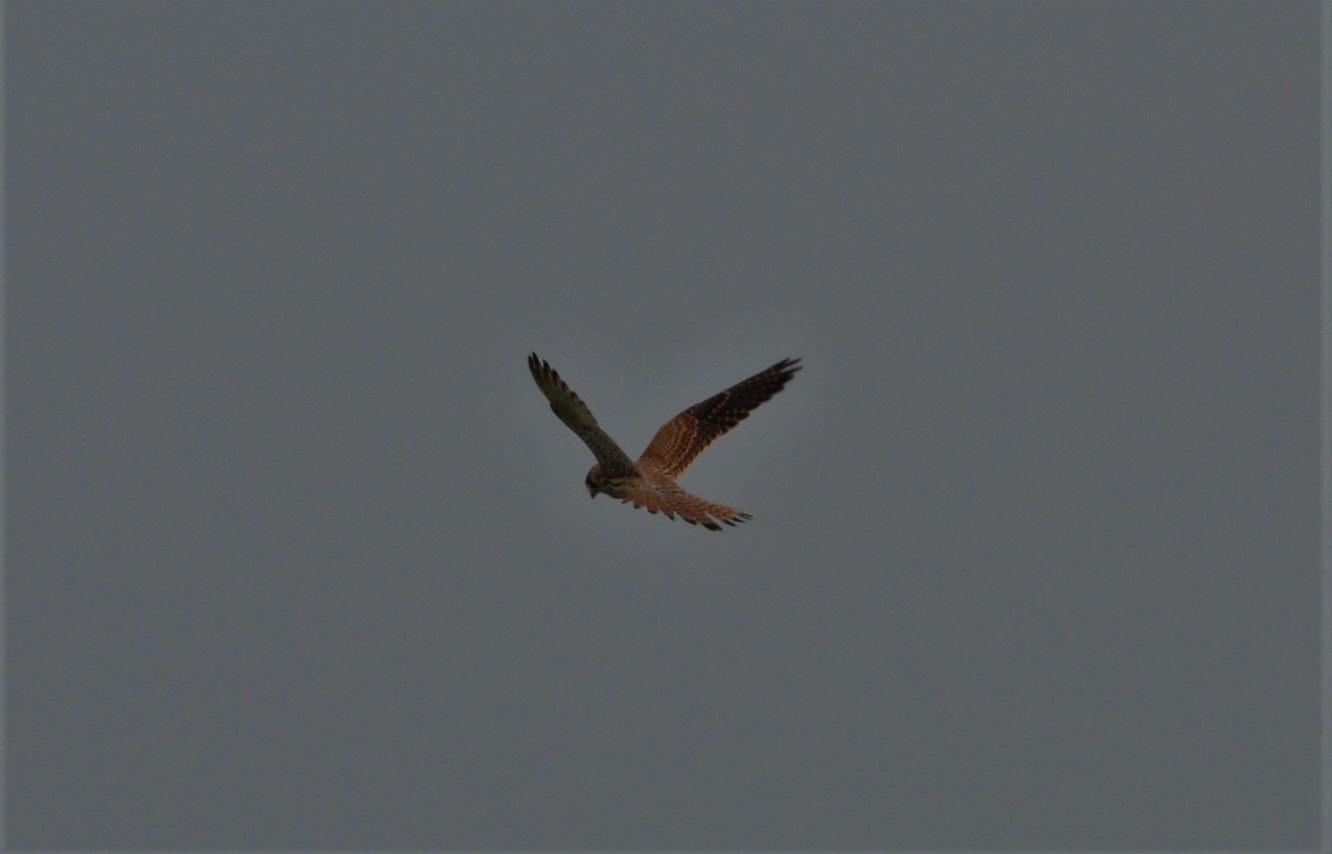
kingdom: Animalia
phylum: Chordata
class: Aves
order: Falconiformes
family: Falconidae
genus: Falco
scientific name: Falco tinnunculus
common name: Common kestrel
